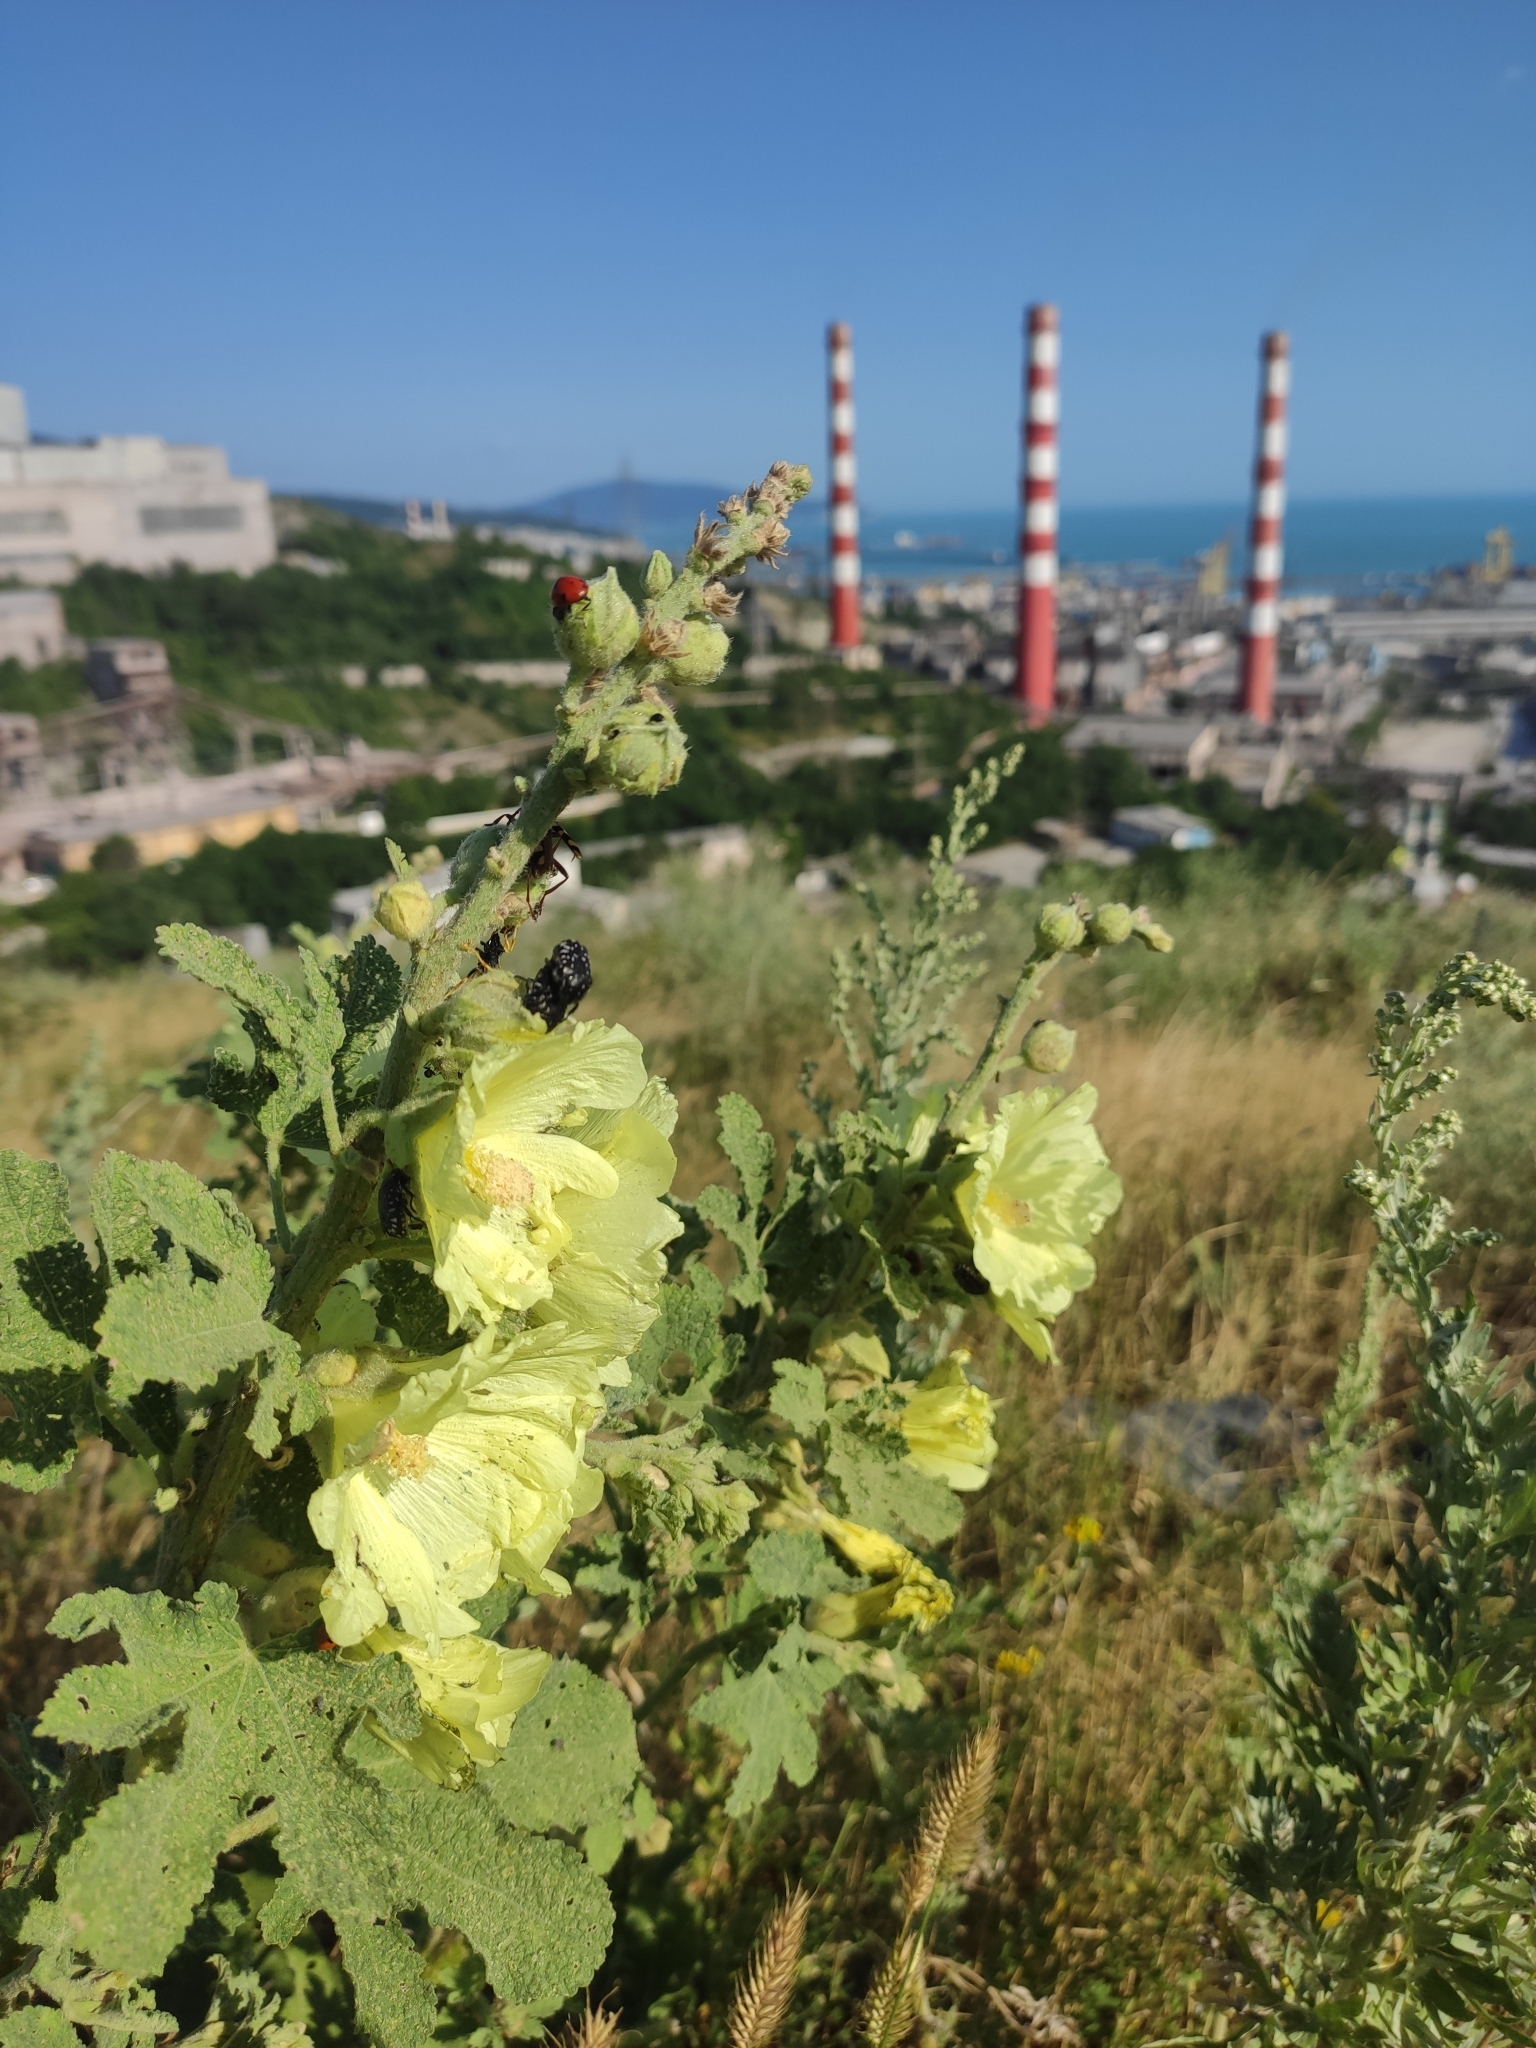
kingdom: Plantae
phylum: Tracheophyta
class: Magnoliopsida
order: Malvales
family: Malvaceae
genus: Alcea
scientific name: Alcea rugosa
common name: Russian hollyhock
